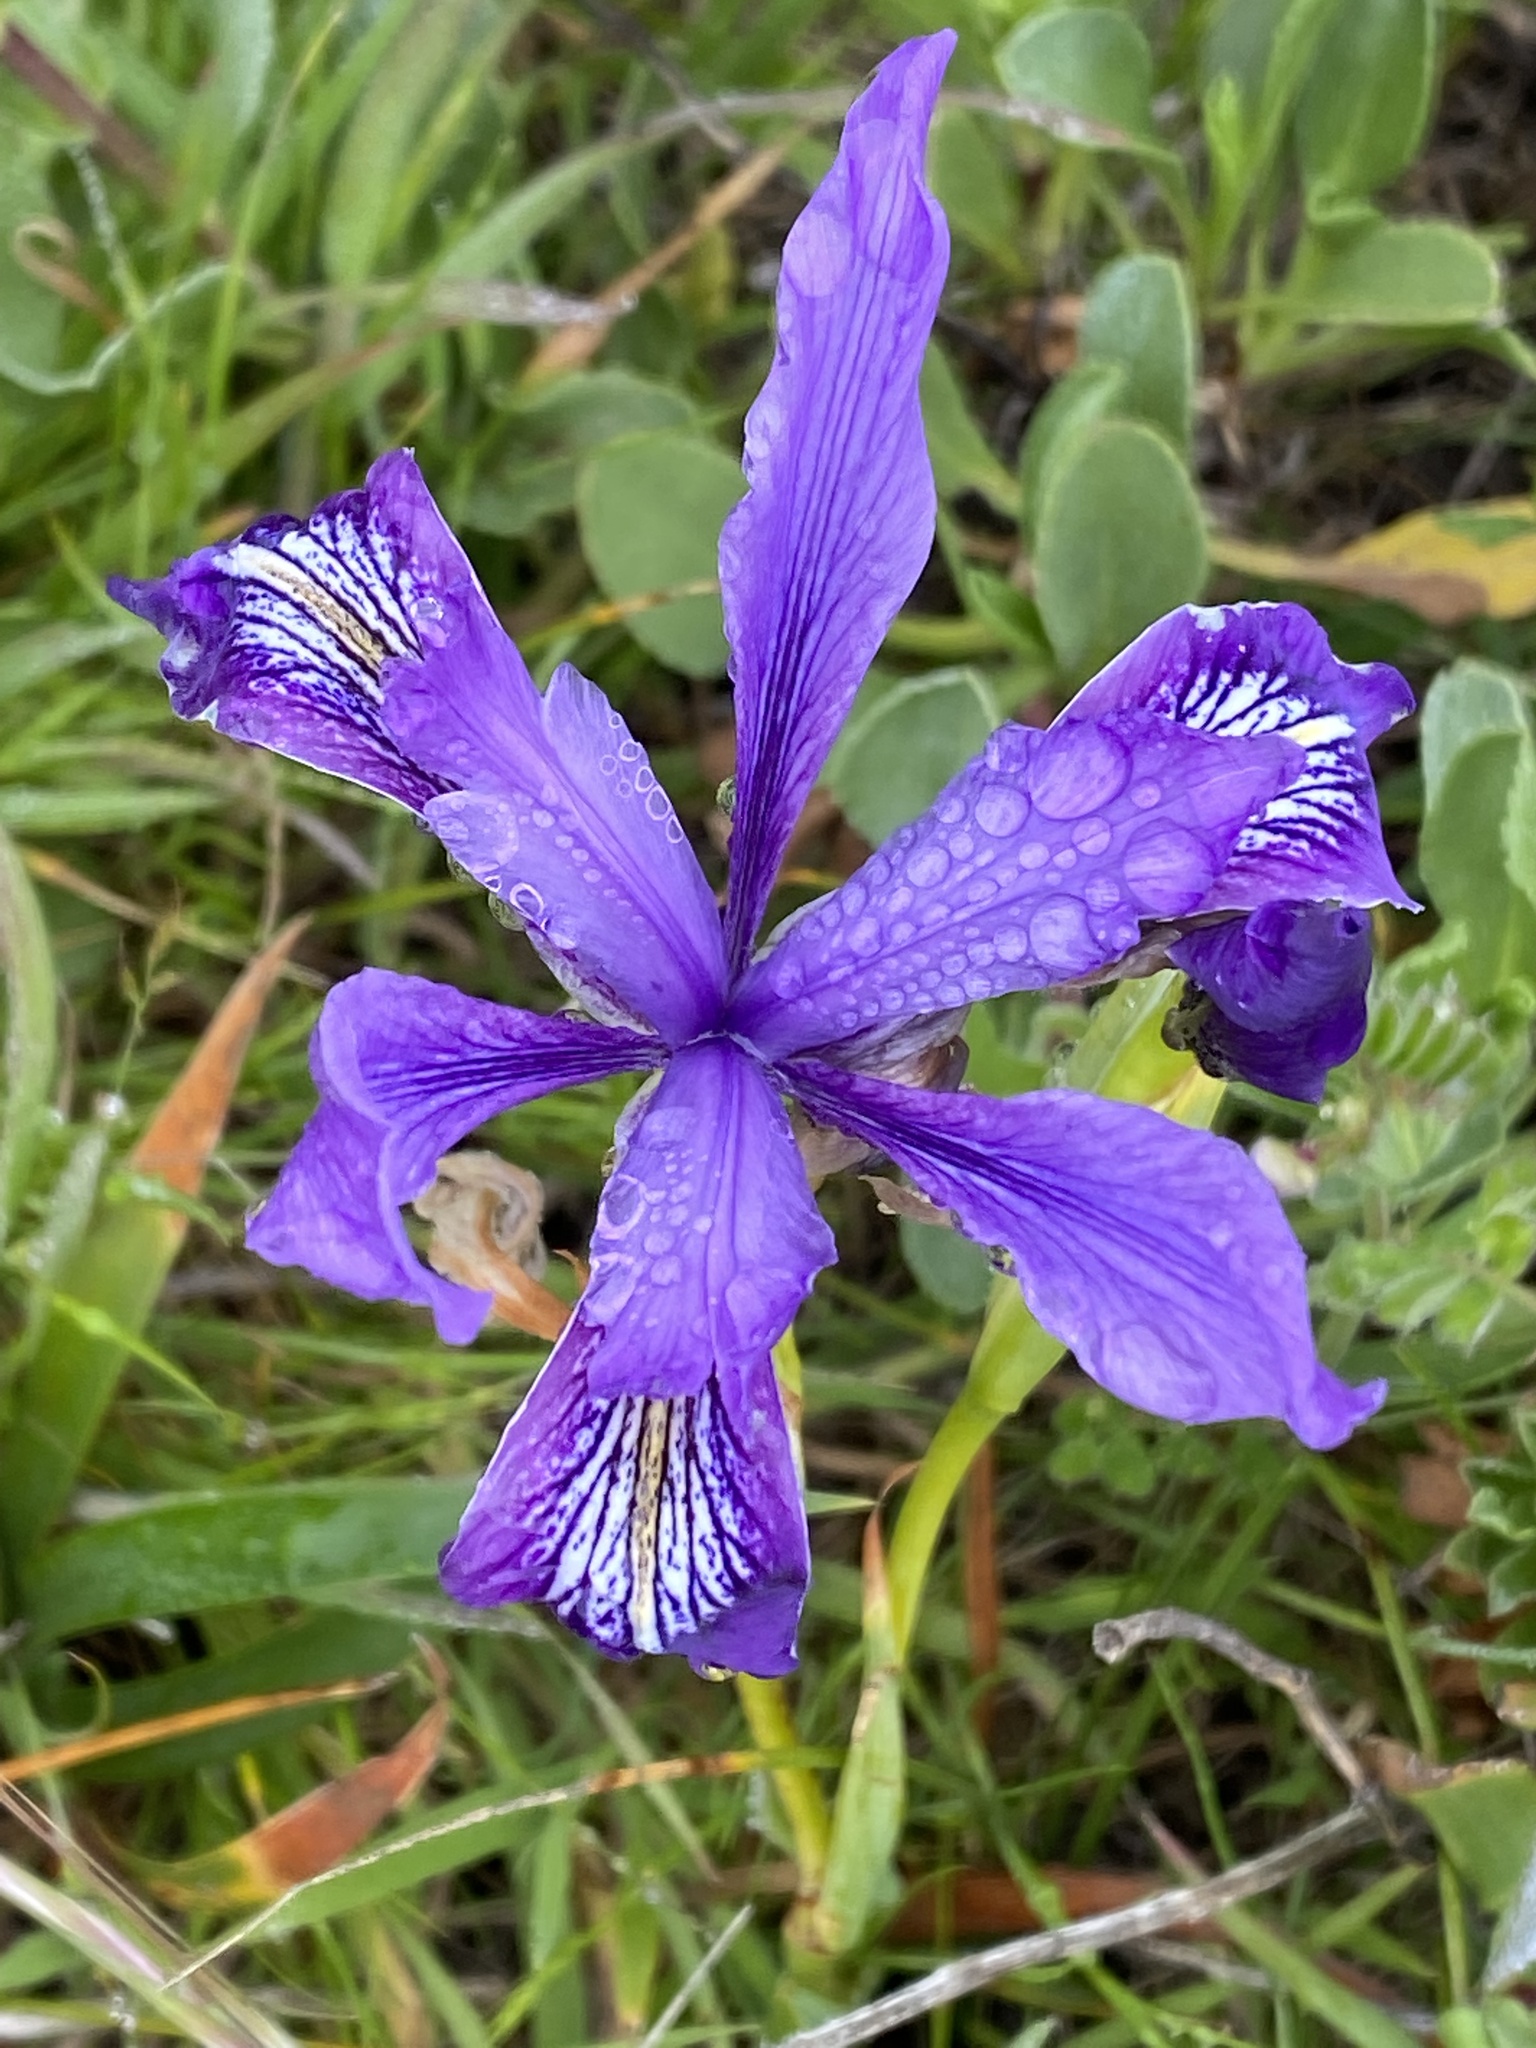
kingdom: Plantae
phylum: Tracheophyta
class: Liliopsida
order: Asparagales
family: Iridaceae
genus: Iris
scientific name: Iris douglasiana
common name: Marin iris
